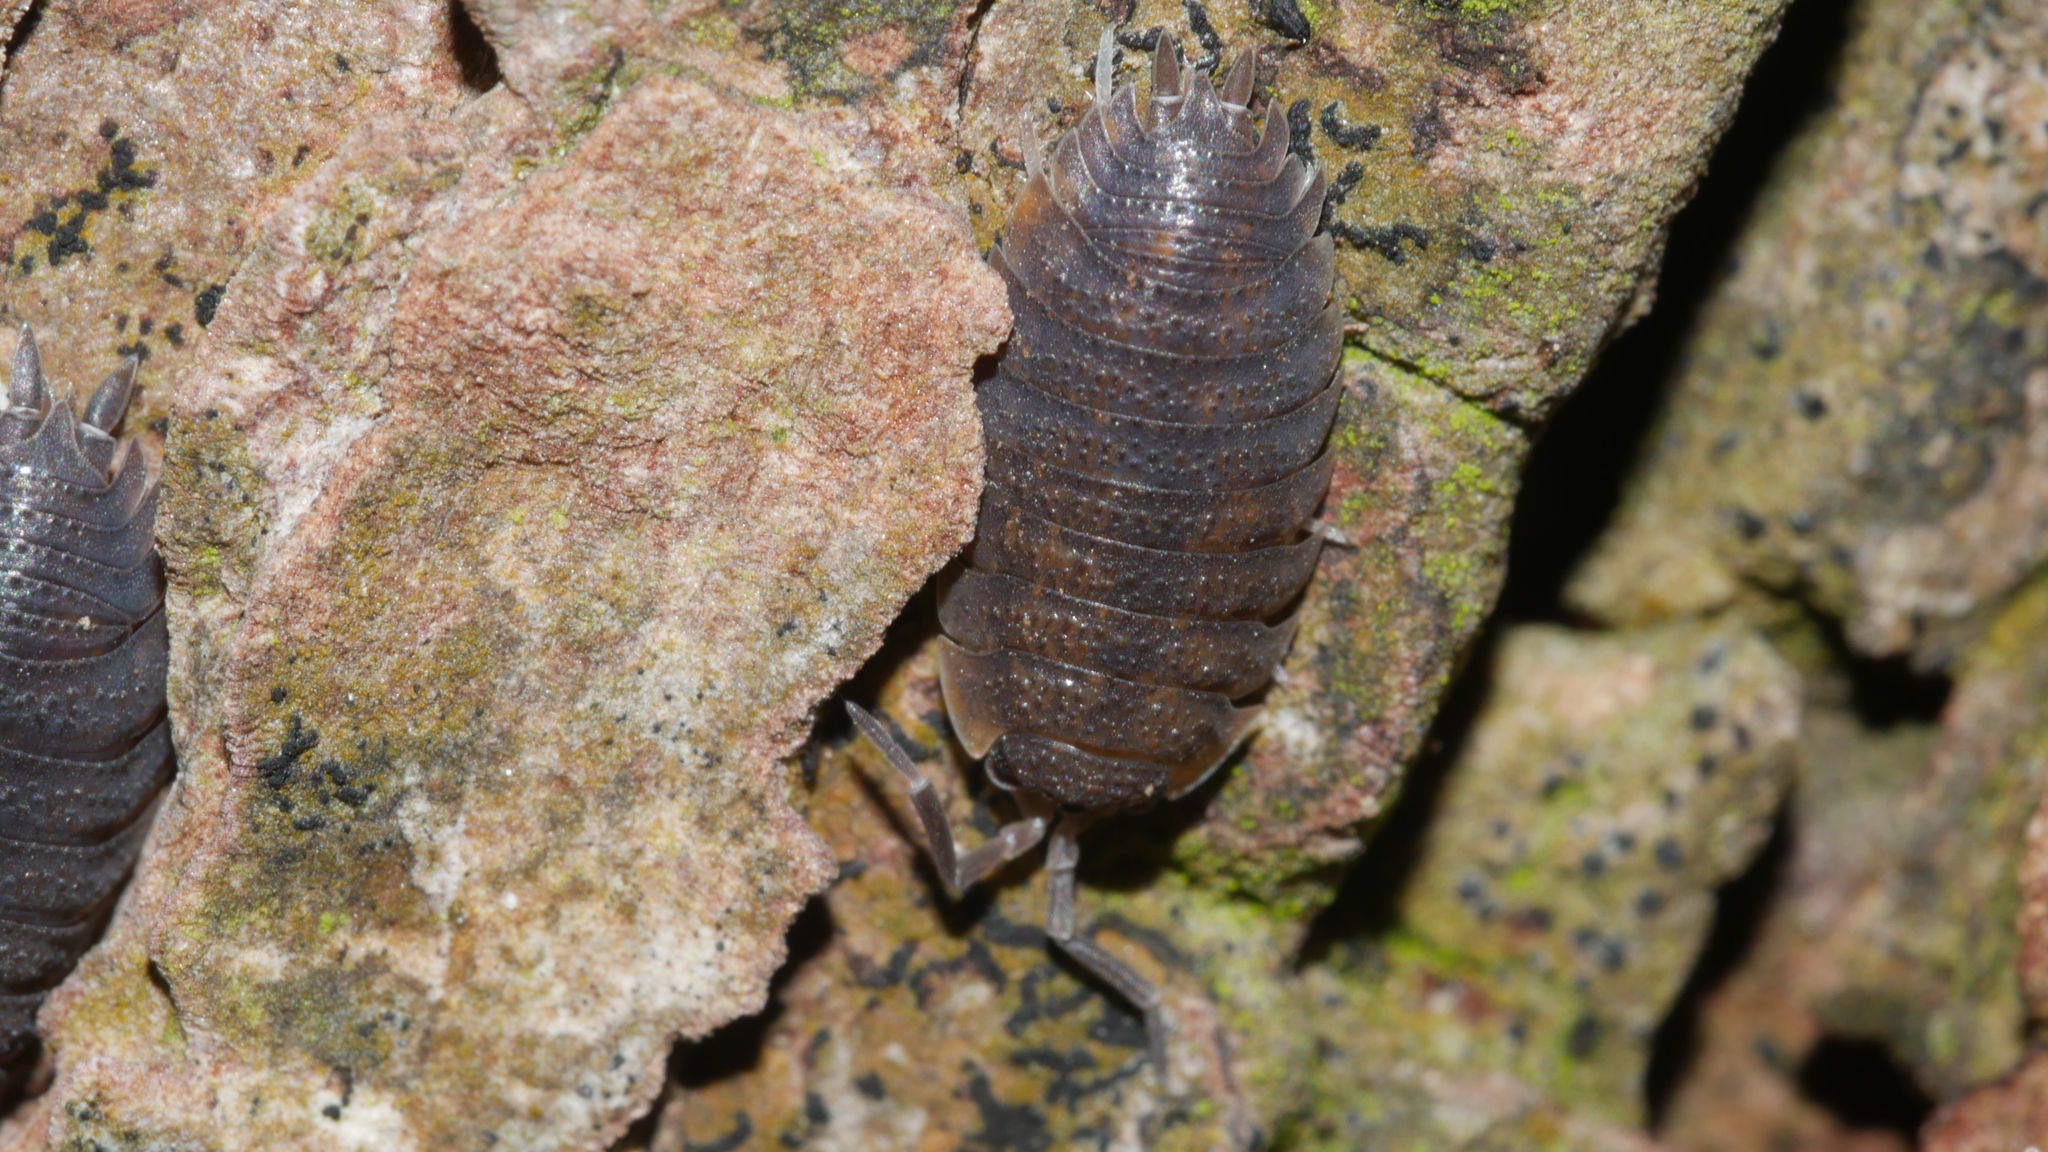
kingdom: Animalia
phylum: Arthropoda
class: Malacostraca
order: Isopoda
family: Porcellionidae
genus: Porcellio
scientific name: Porcellio scaber
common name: Common rough woodlouse
